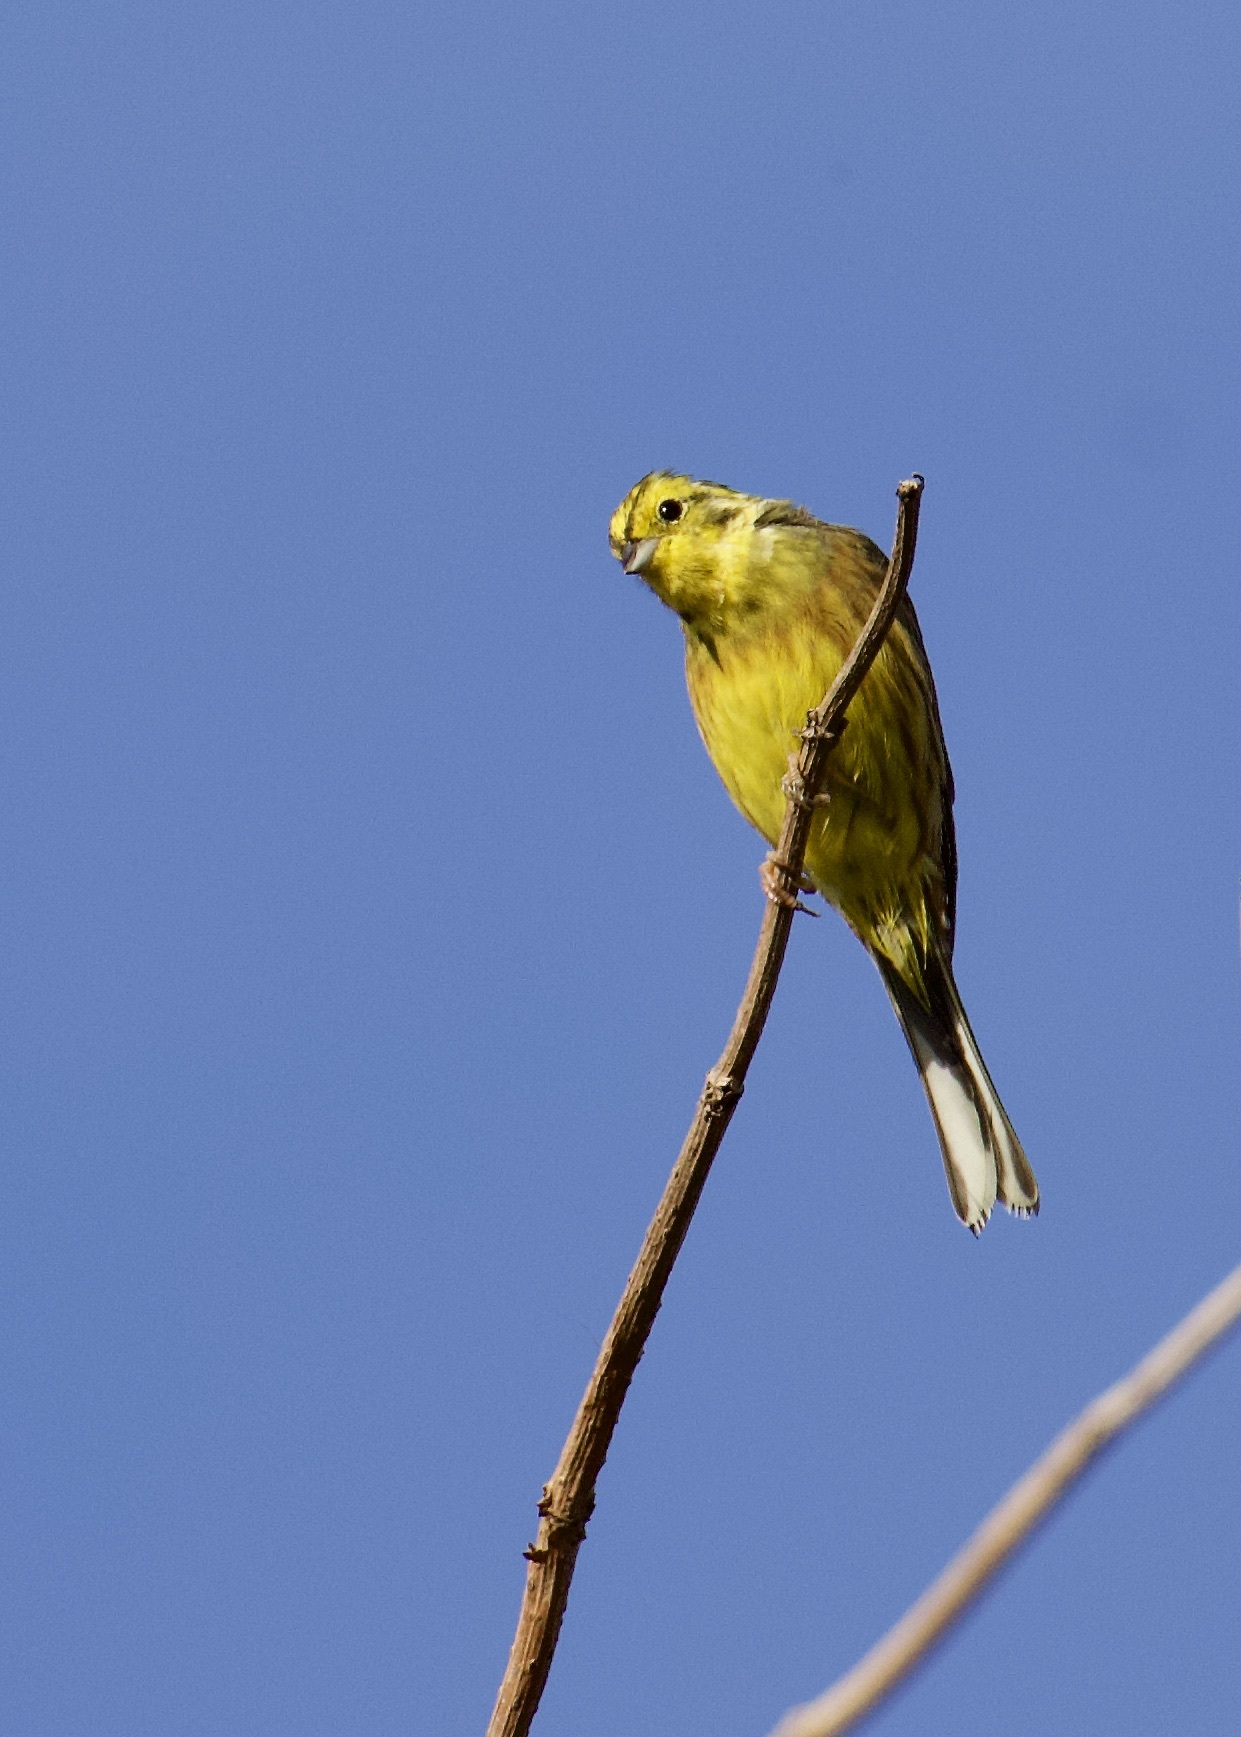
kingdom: Animalia
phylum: Chordata
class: Aves
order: Passeriformes
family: Emberizidae
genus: Emberiza
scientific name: Emberiza citrinella
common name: Yellowhammer
